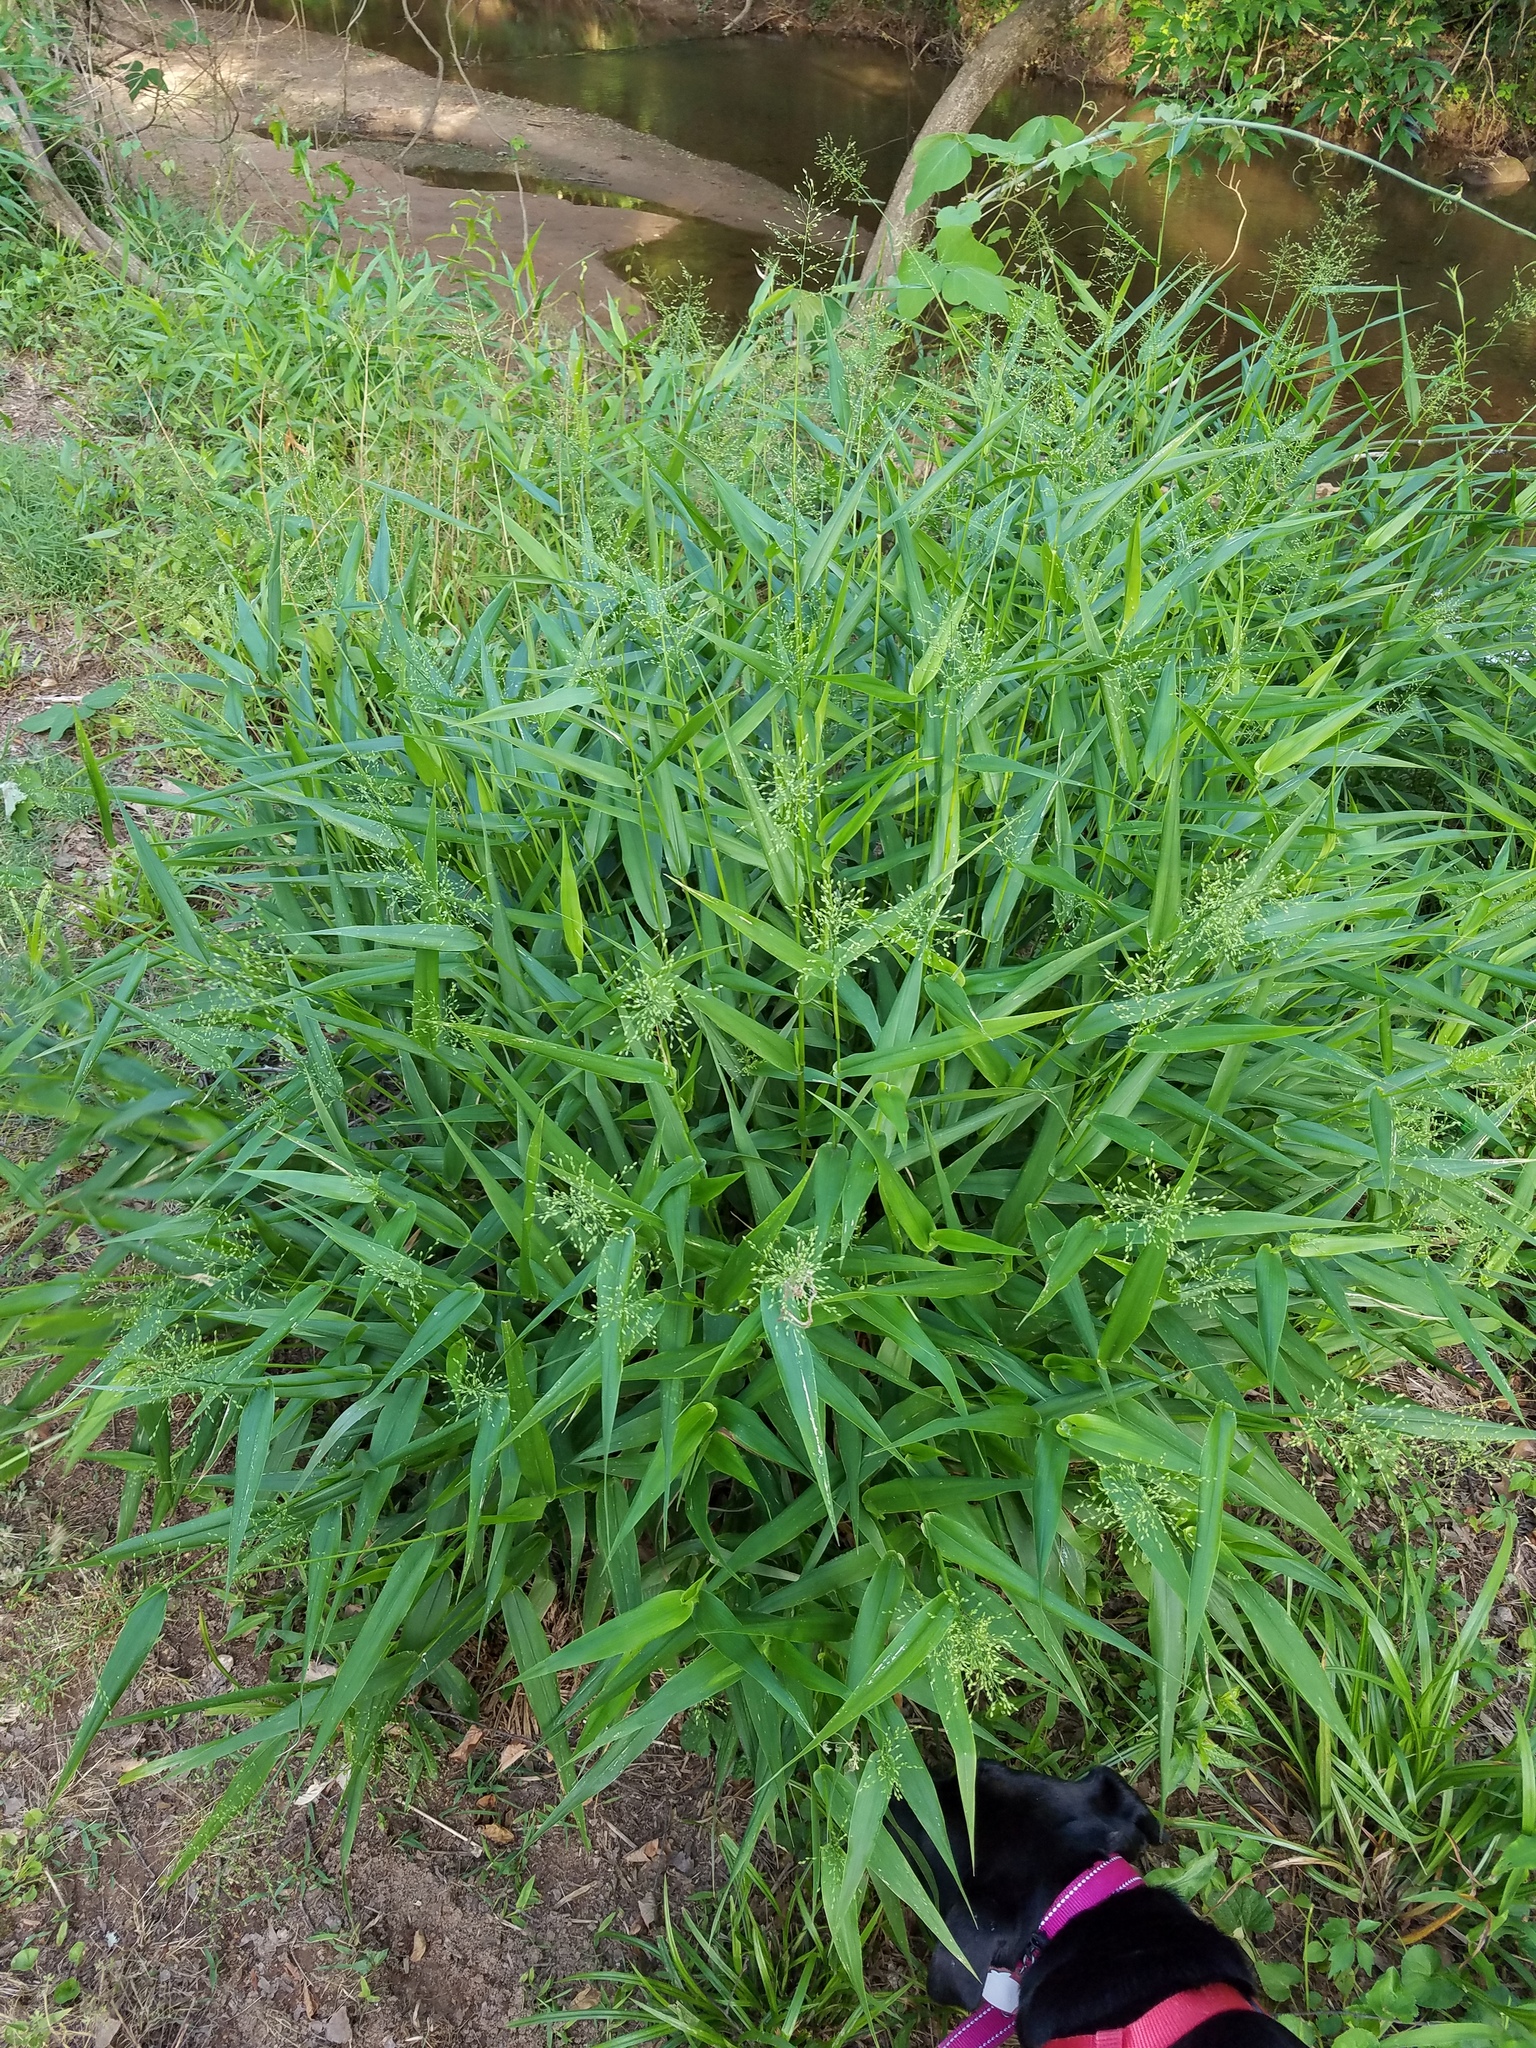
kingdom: Plantae
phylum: Tracheophyta
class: Liliopsida
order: Poales
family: Poaceae
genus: Dichanthelium
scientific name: Dichanthelium clandestinum
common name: Deer-tongue grass
